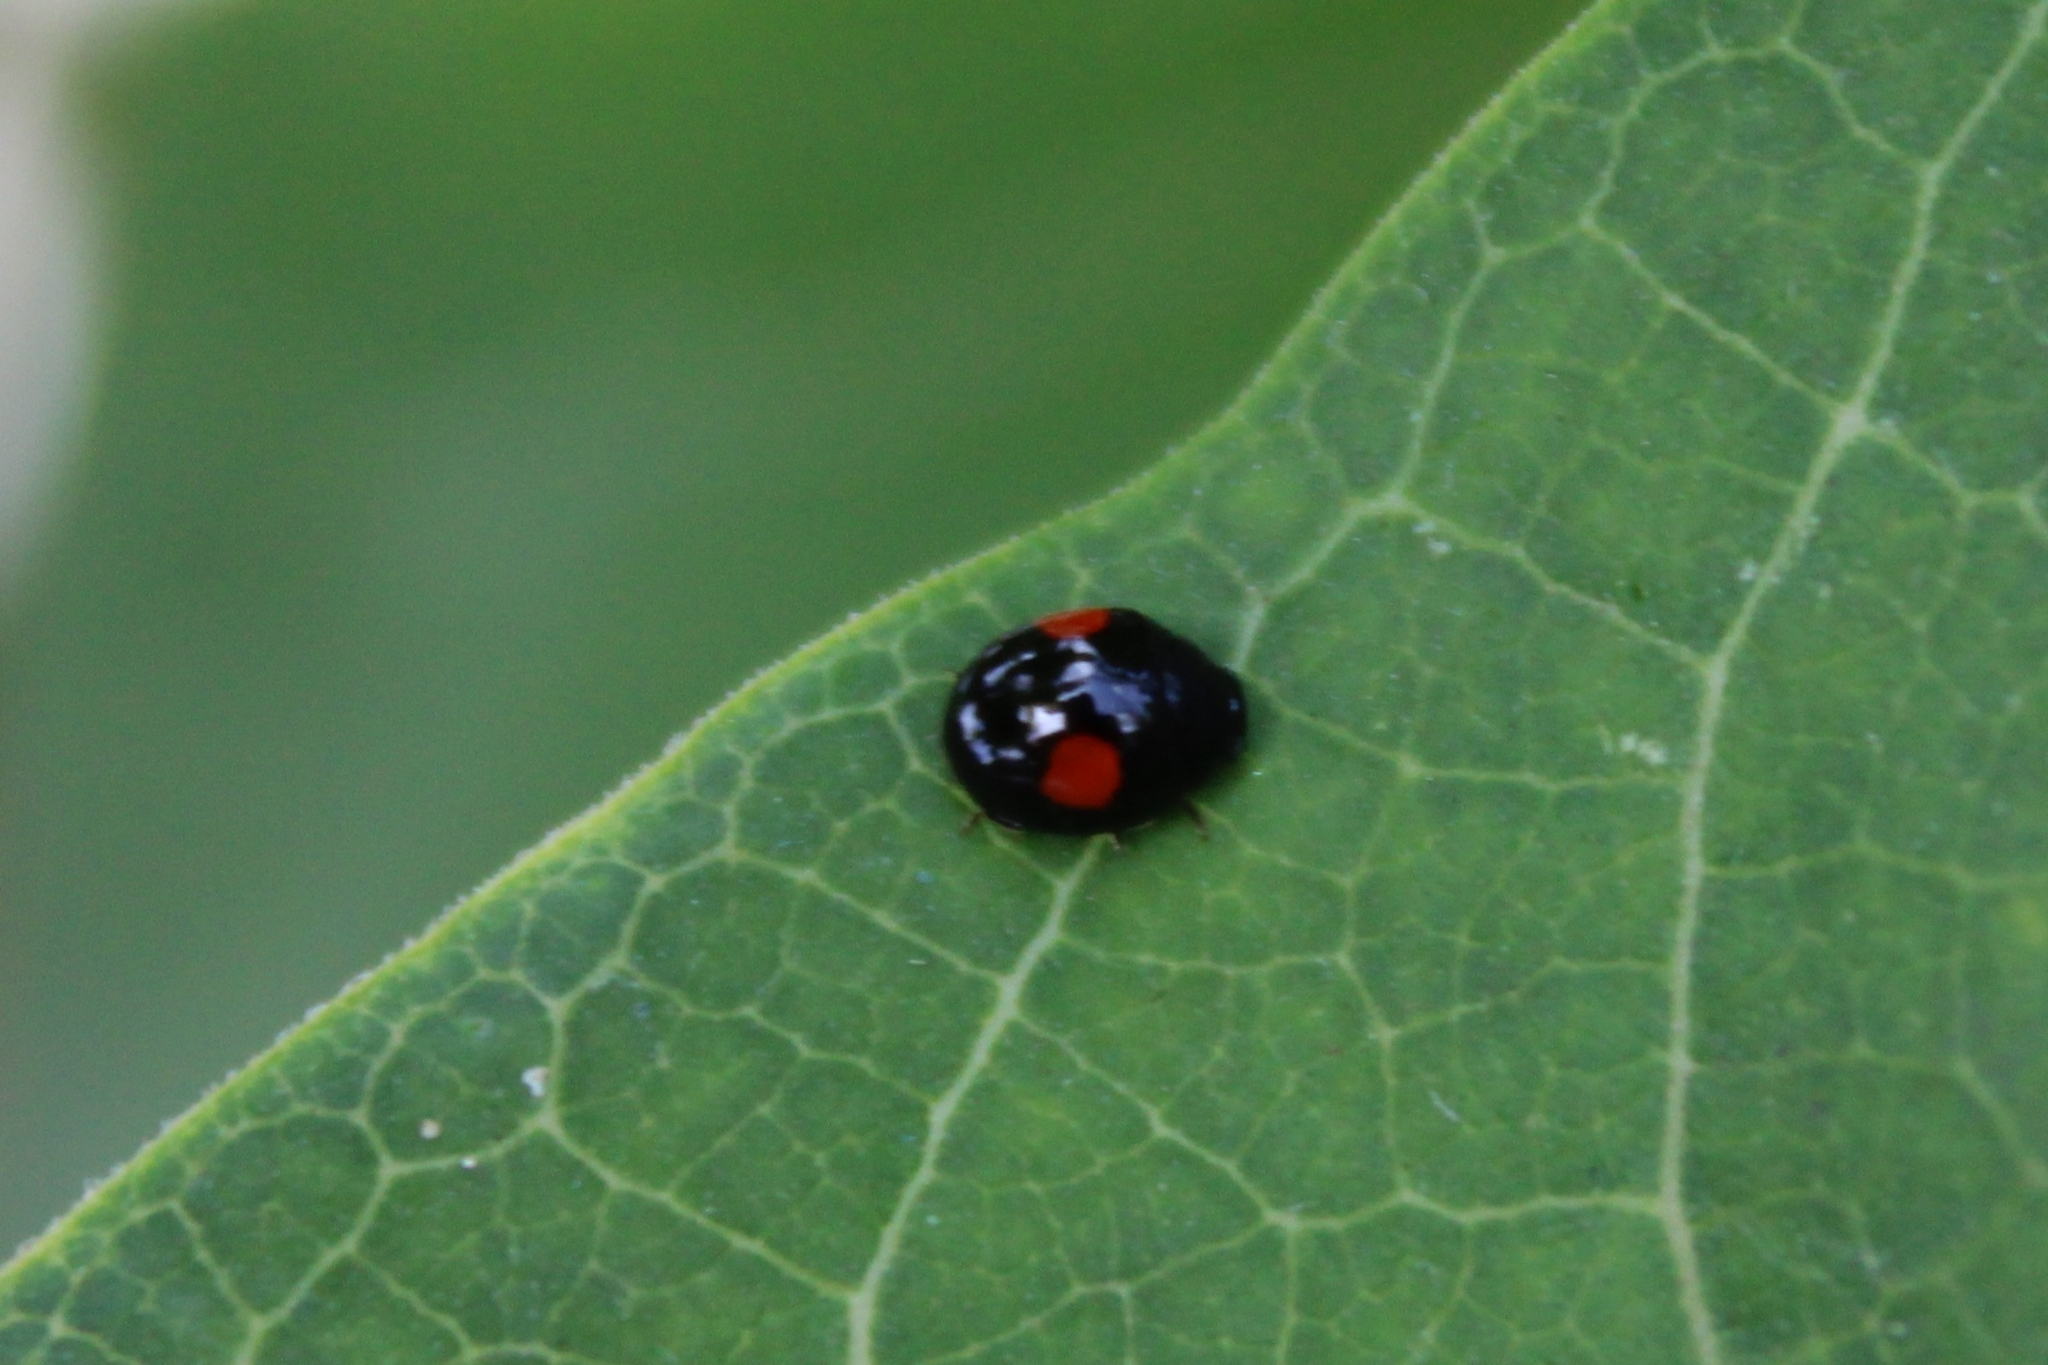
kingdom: Animalia
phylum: Arthropoda
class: Insecta
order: Coleoptera
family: Coccinellidae
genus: Chilocorus
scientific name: Chilocorus stigma
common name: Twicestabbed lady beetle
